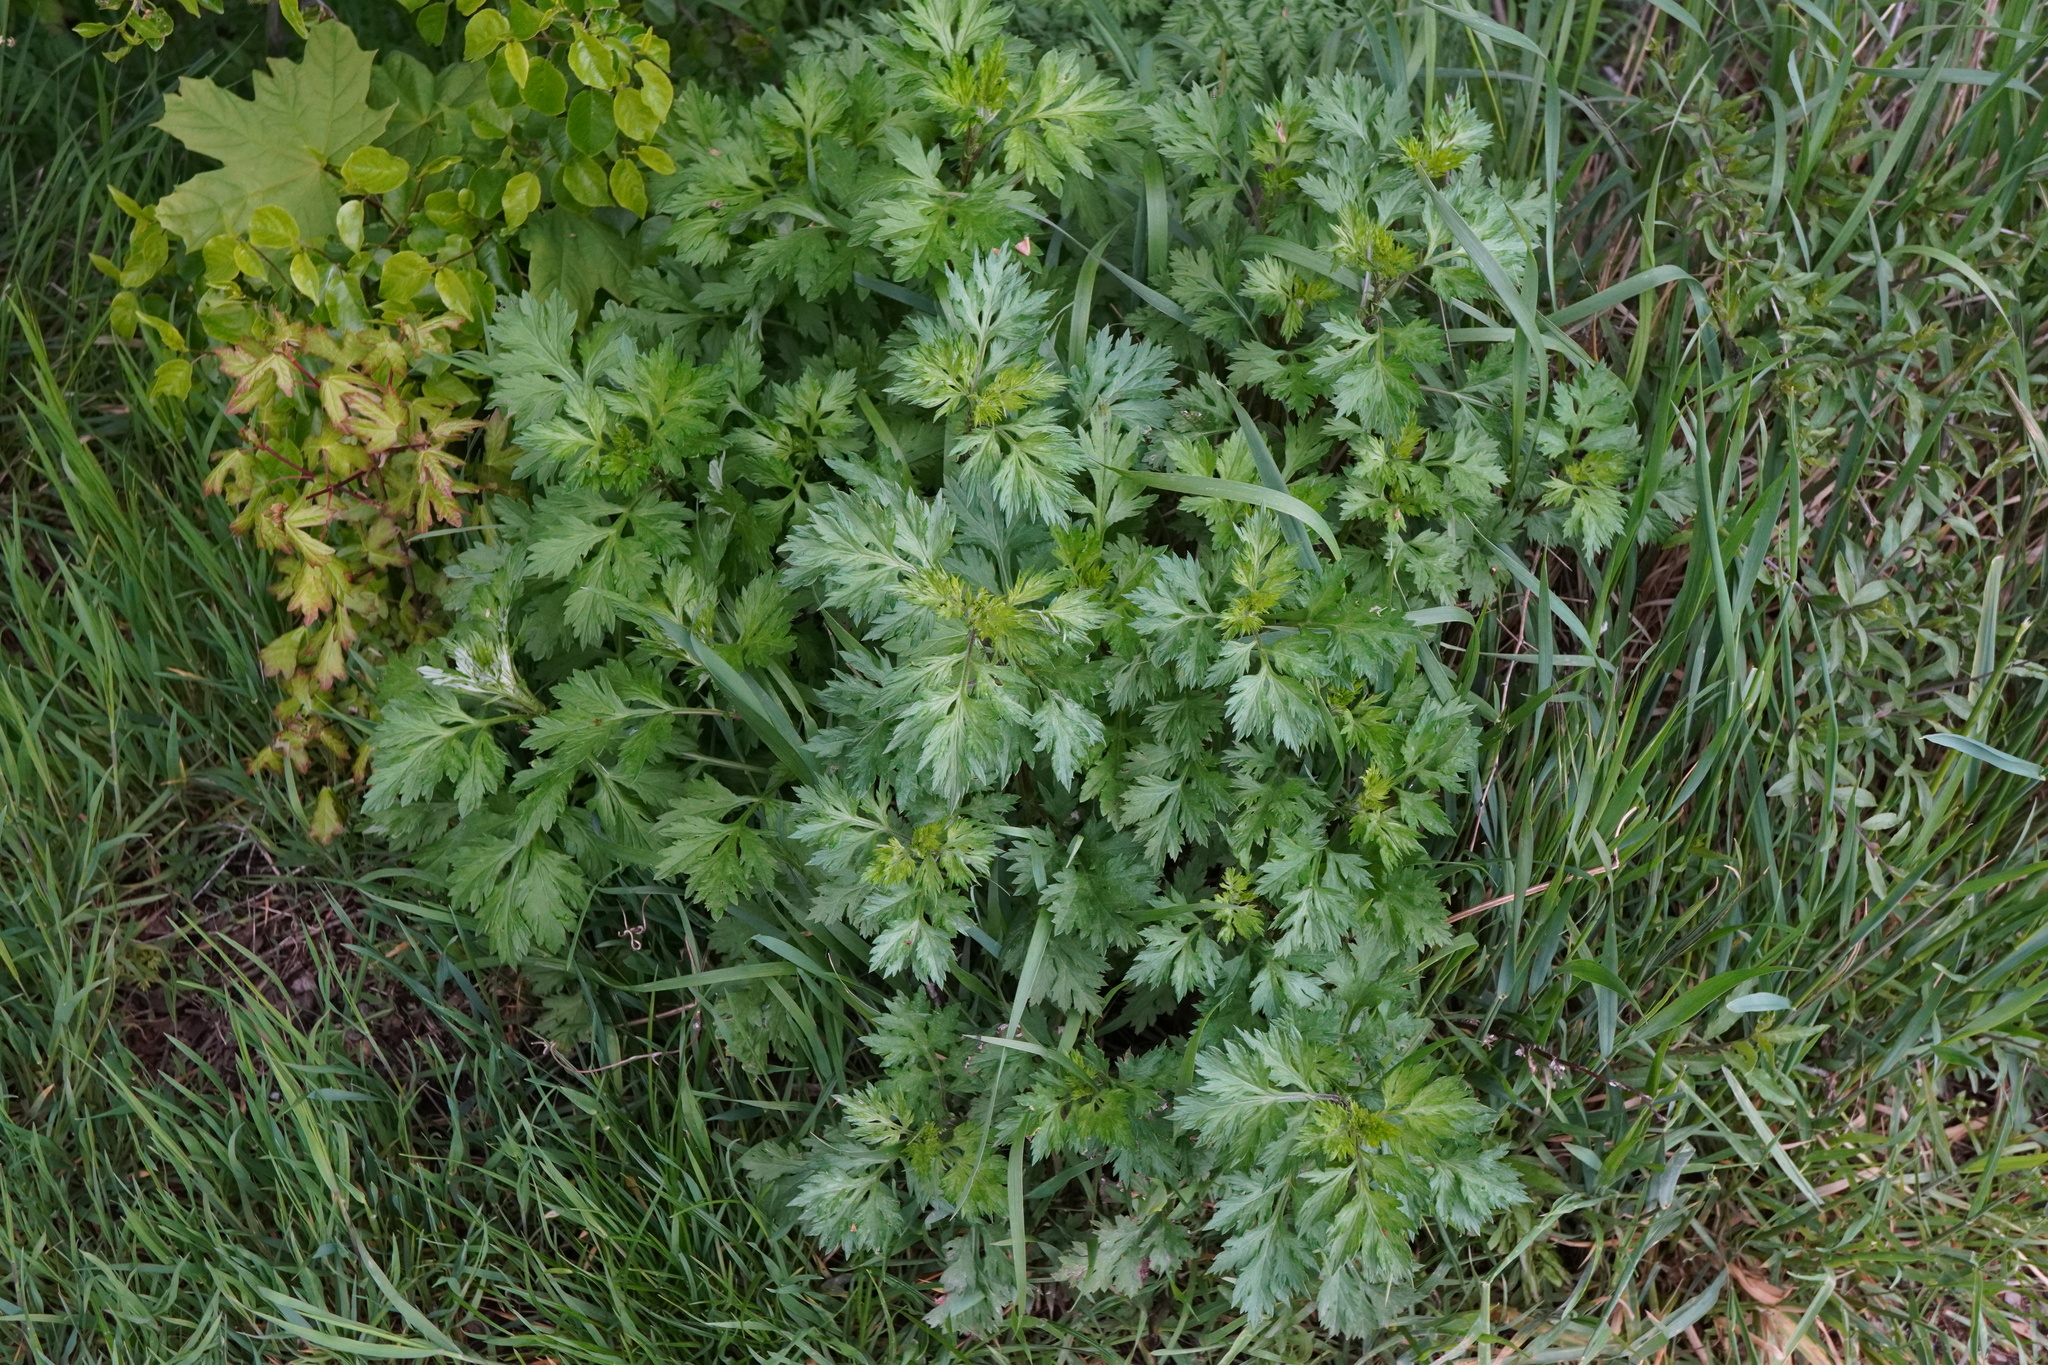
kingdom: Plantae
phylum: Tracheophyta
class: Magnoliopsida
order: Asterales
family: Asteraceae
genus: Artemisia
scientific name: Artemisia vulgaris
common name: Mugwort
